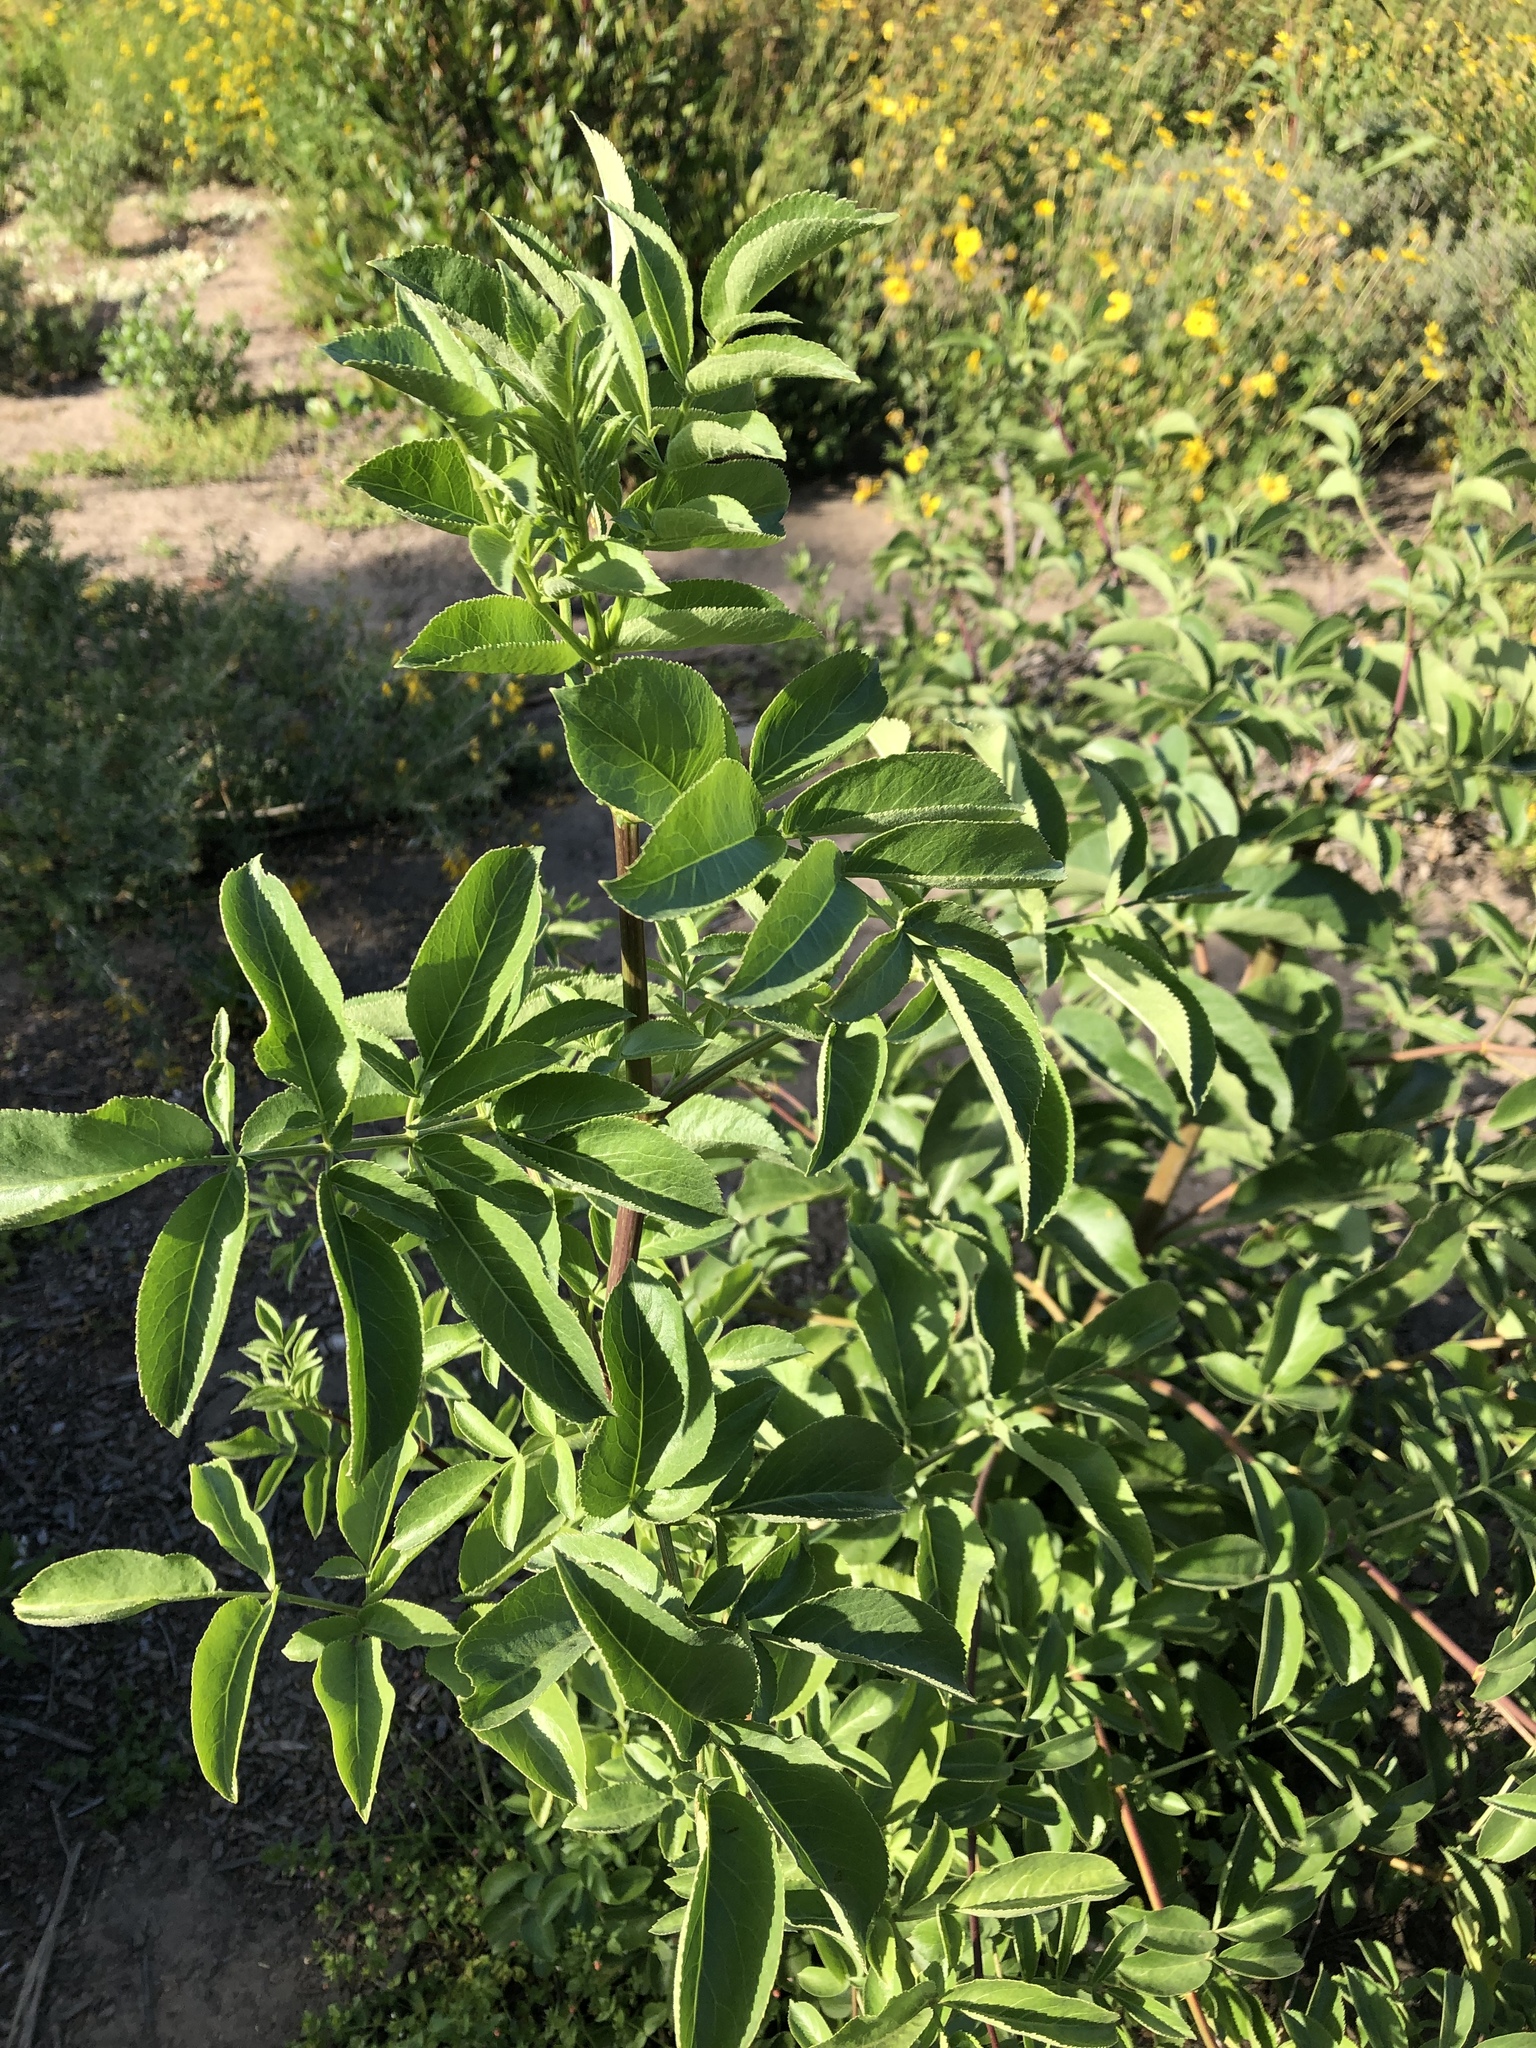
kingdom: Plantae
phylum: Tracheophyta
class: Magnoliopsida
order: Dipsacales
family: Viburnaceae
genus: Sambucus
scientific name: Sambucus cerulea
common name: Blue elder
